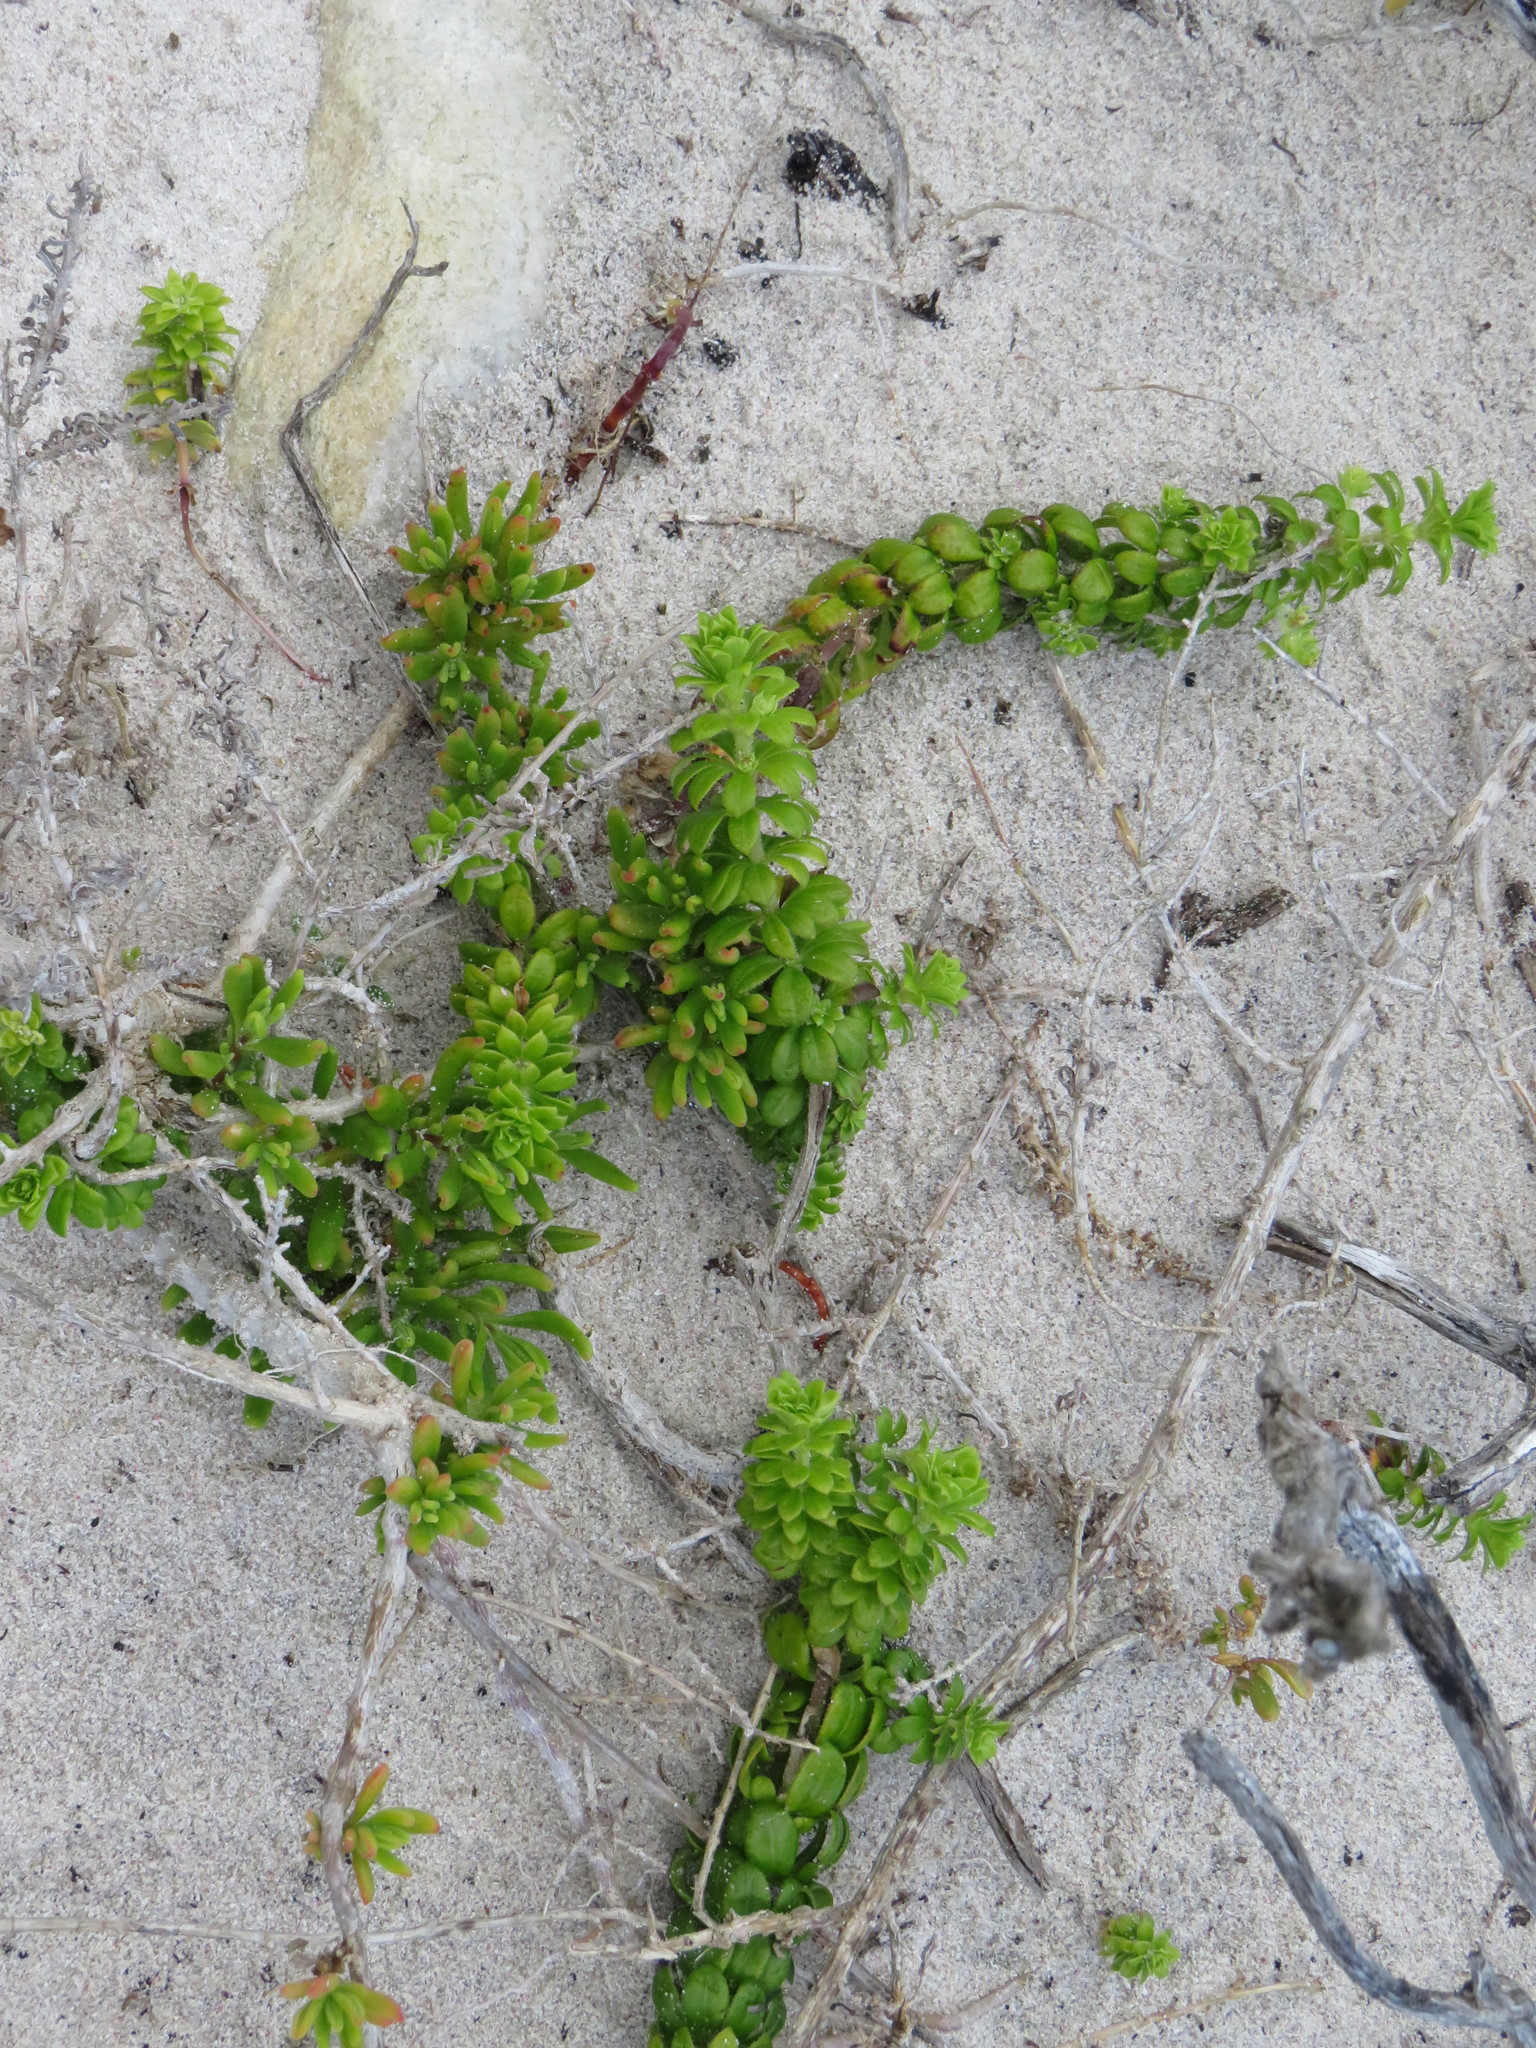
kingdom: Plantae
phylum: Tracheophyta
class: Magnoliopsida
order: Gentianales
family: Rubiaceae
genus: Galium
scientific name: Galium tomentosum
